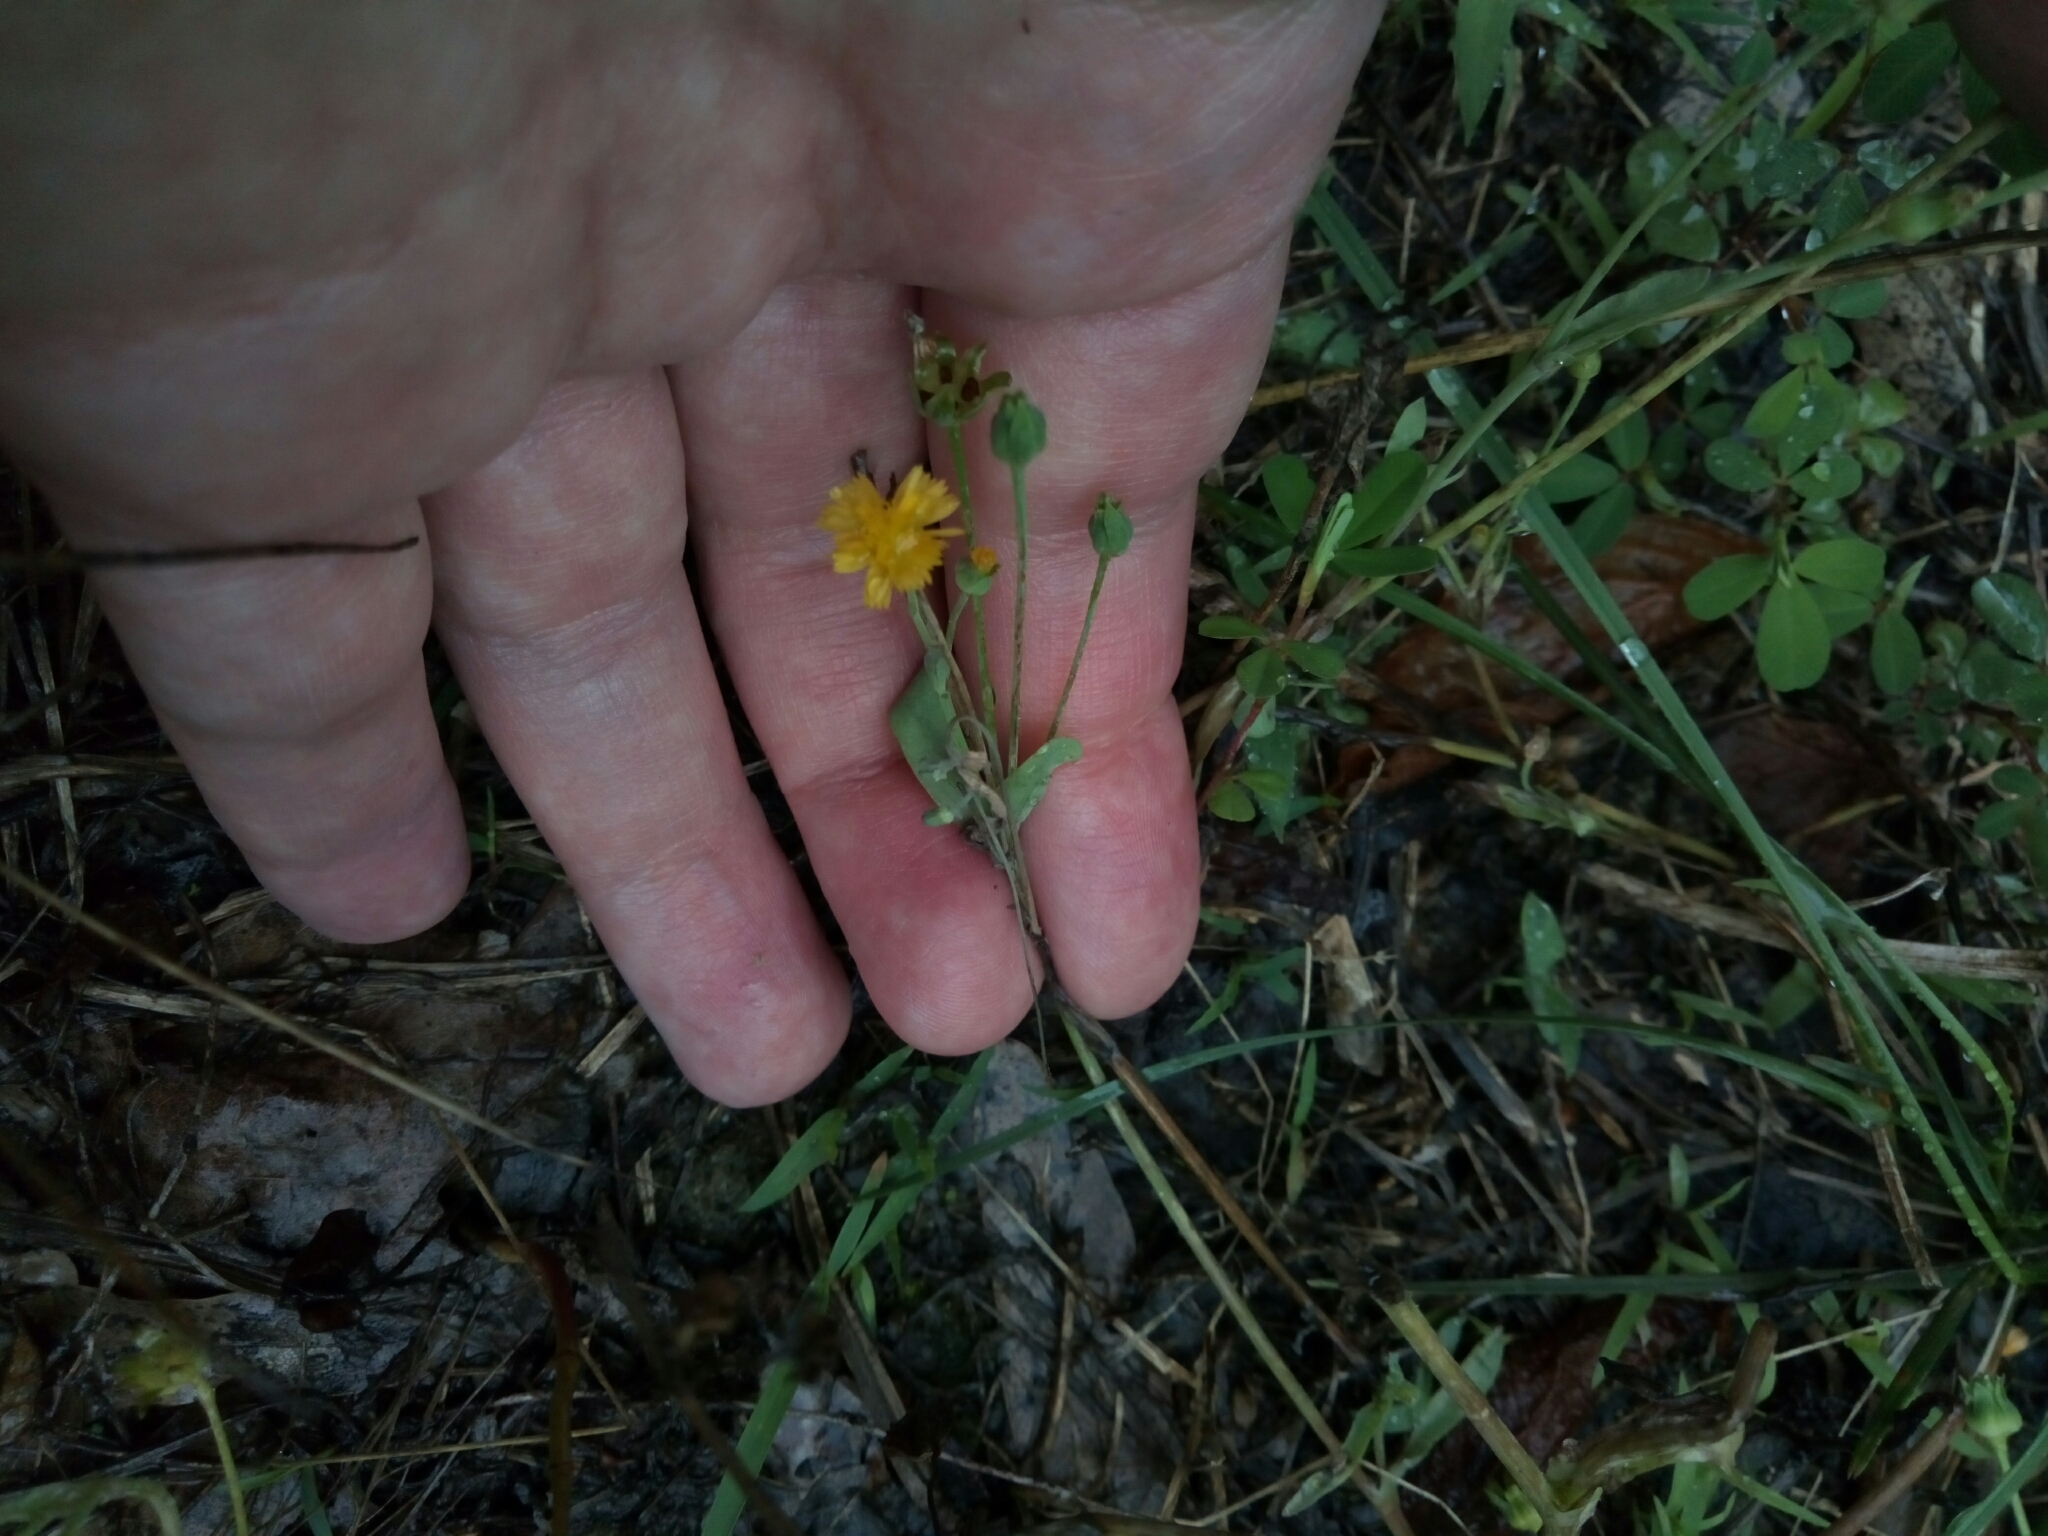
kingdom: Plantae
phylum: Tracheophyta
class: Magnoliopsida
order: Asterales
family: Asteraceae
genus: Krigia
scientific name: Krigia cespitosa
